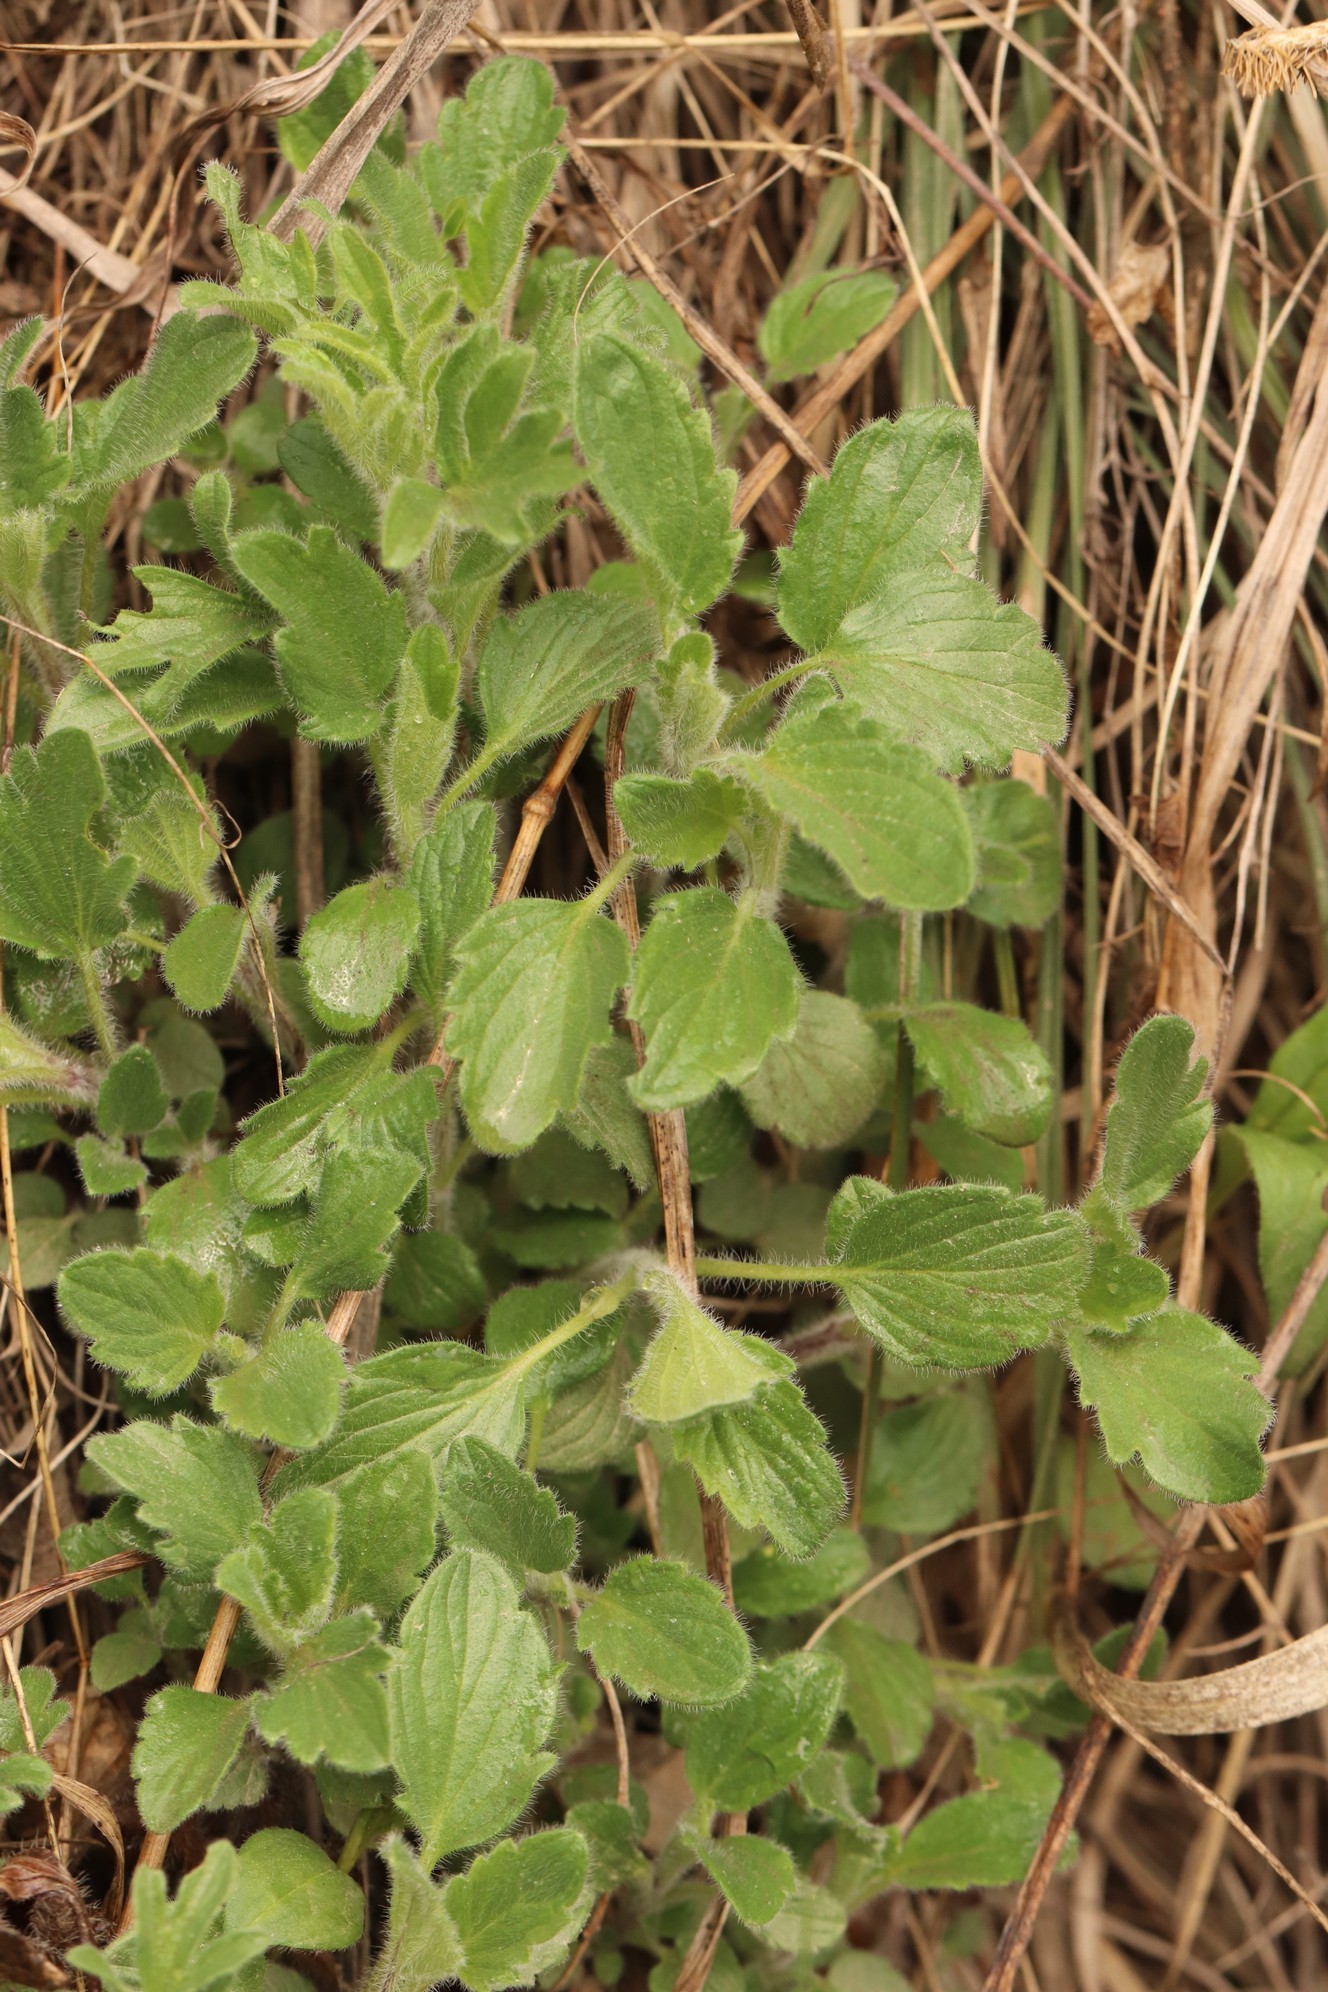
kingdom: Plantae
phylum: Tracheophyta
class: Magnoliopsida
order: Lamiales
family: Lamiaceae
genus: Nepeta
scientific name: Nepeta multifida
